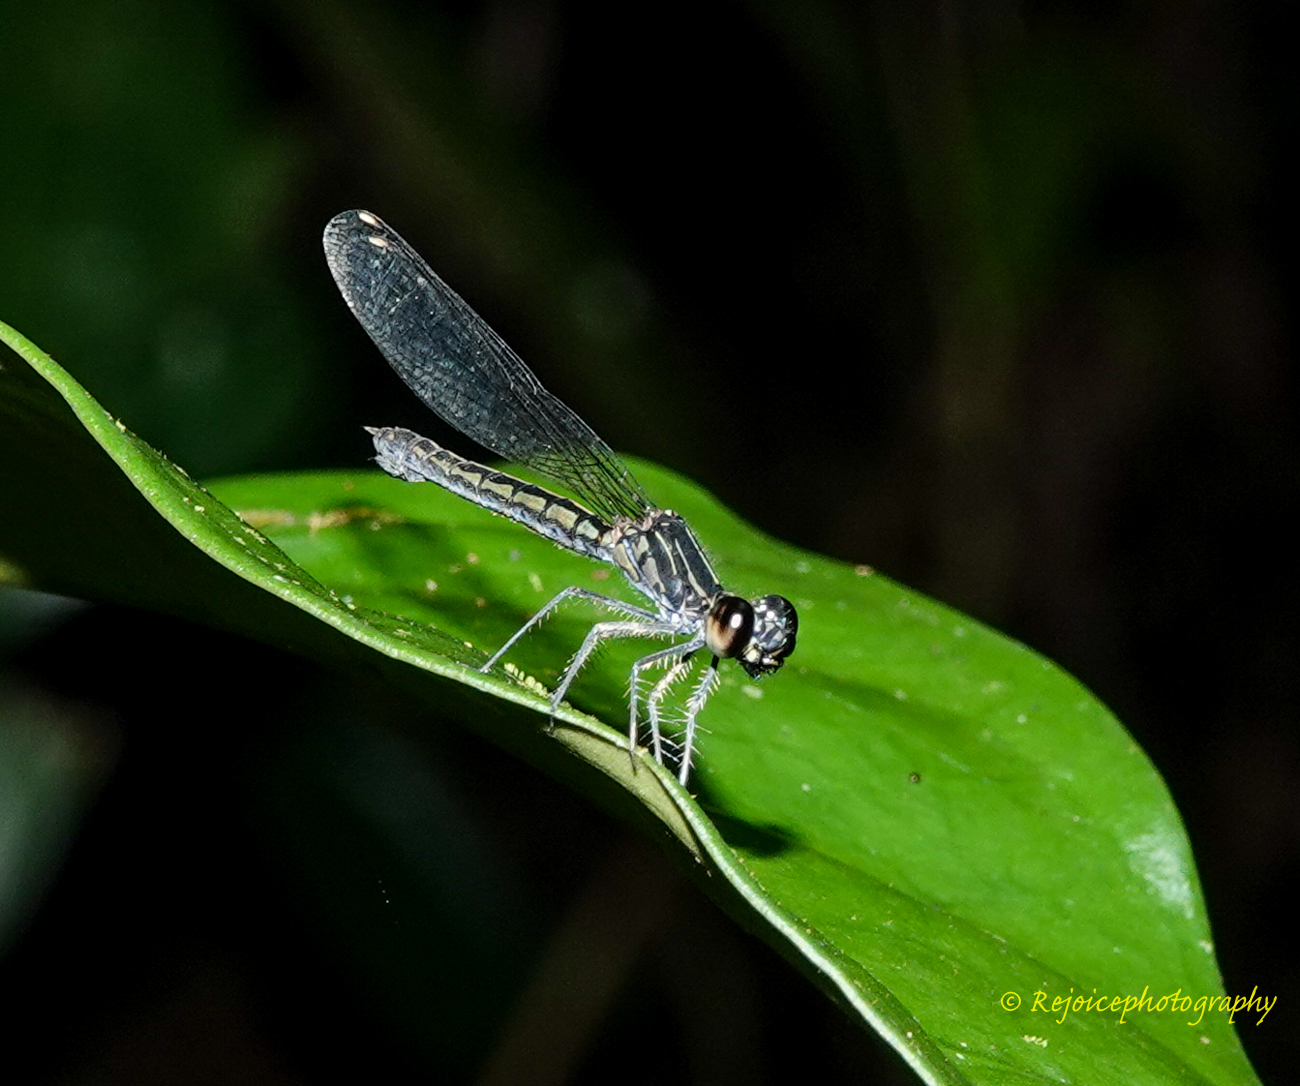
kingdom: Animalia
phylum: Arthropoda
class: Insecta
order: Odonata
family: Chlorocyphidae
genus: Libellago
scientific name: Libellago lineata
